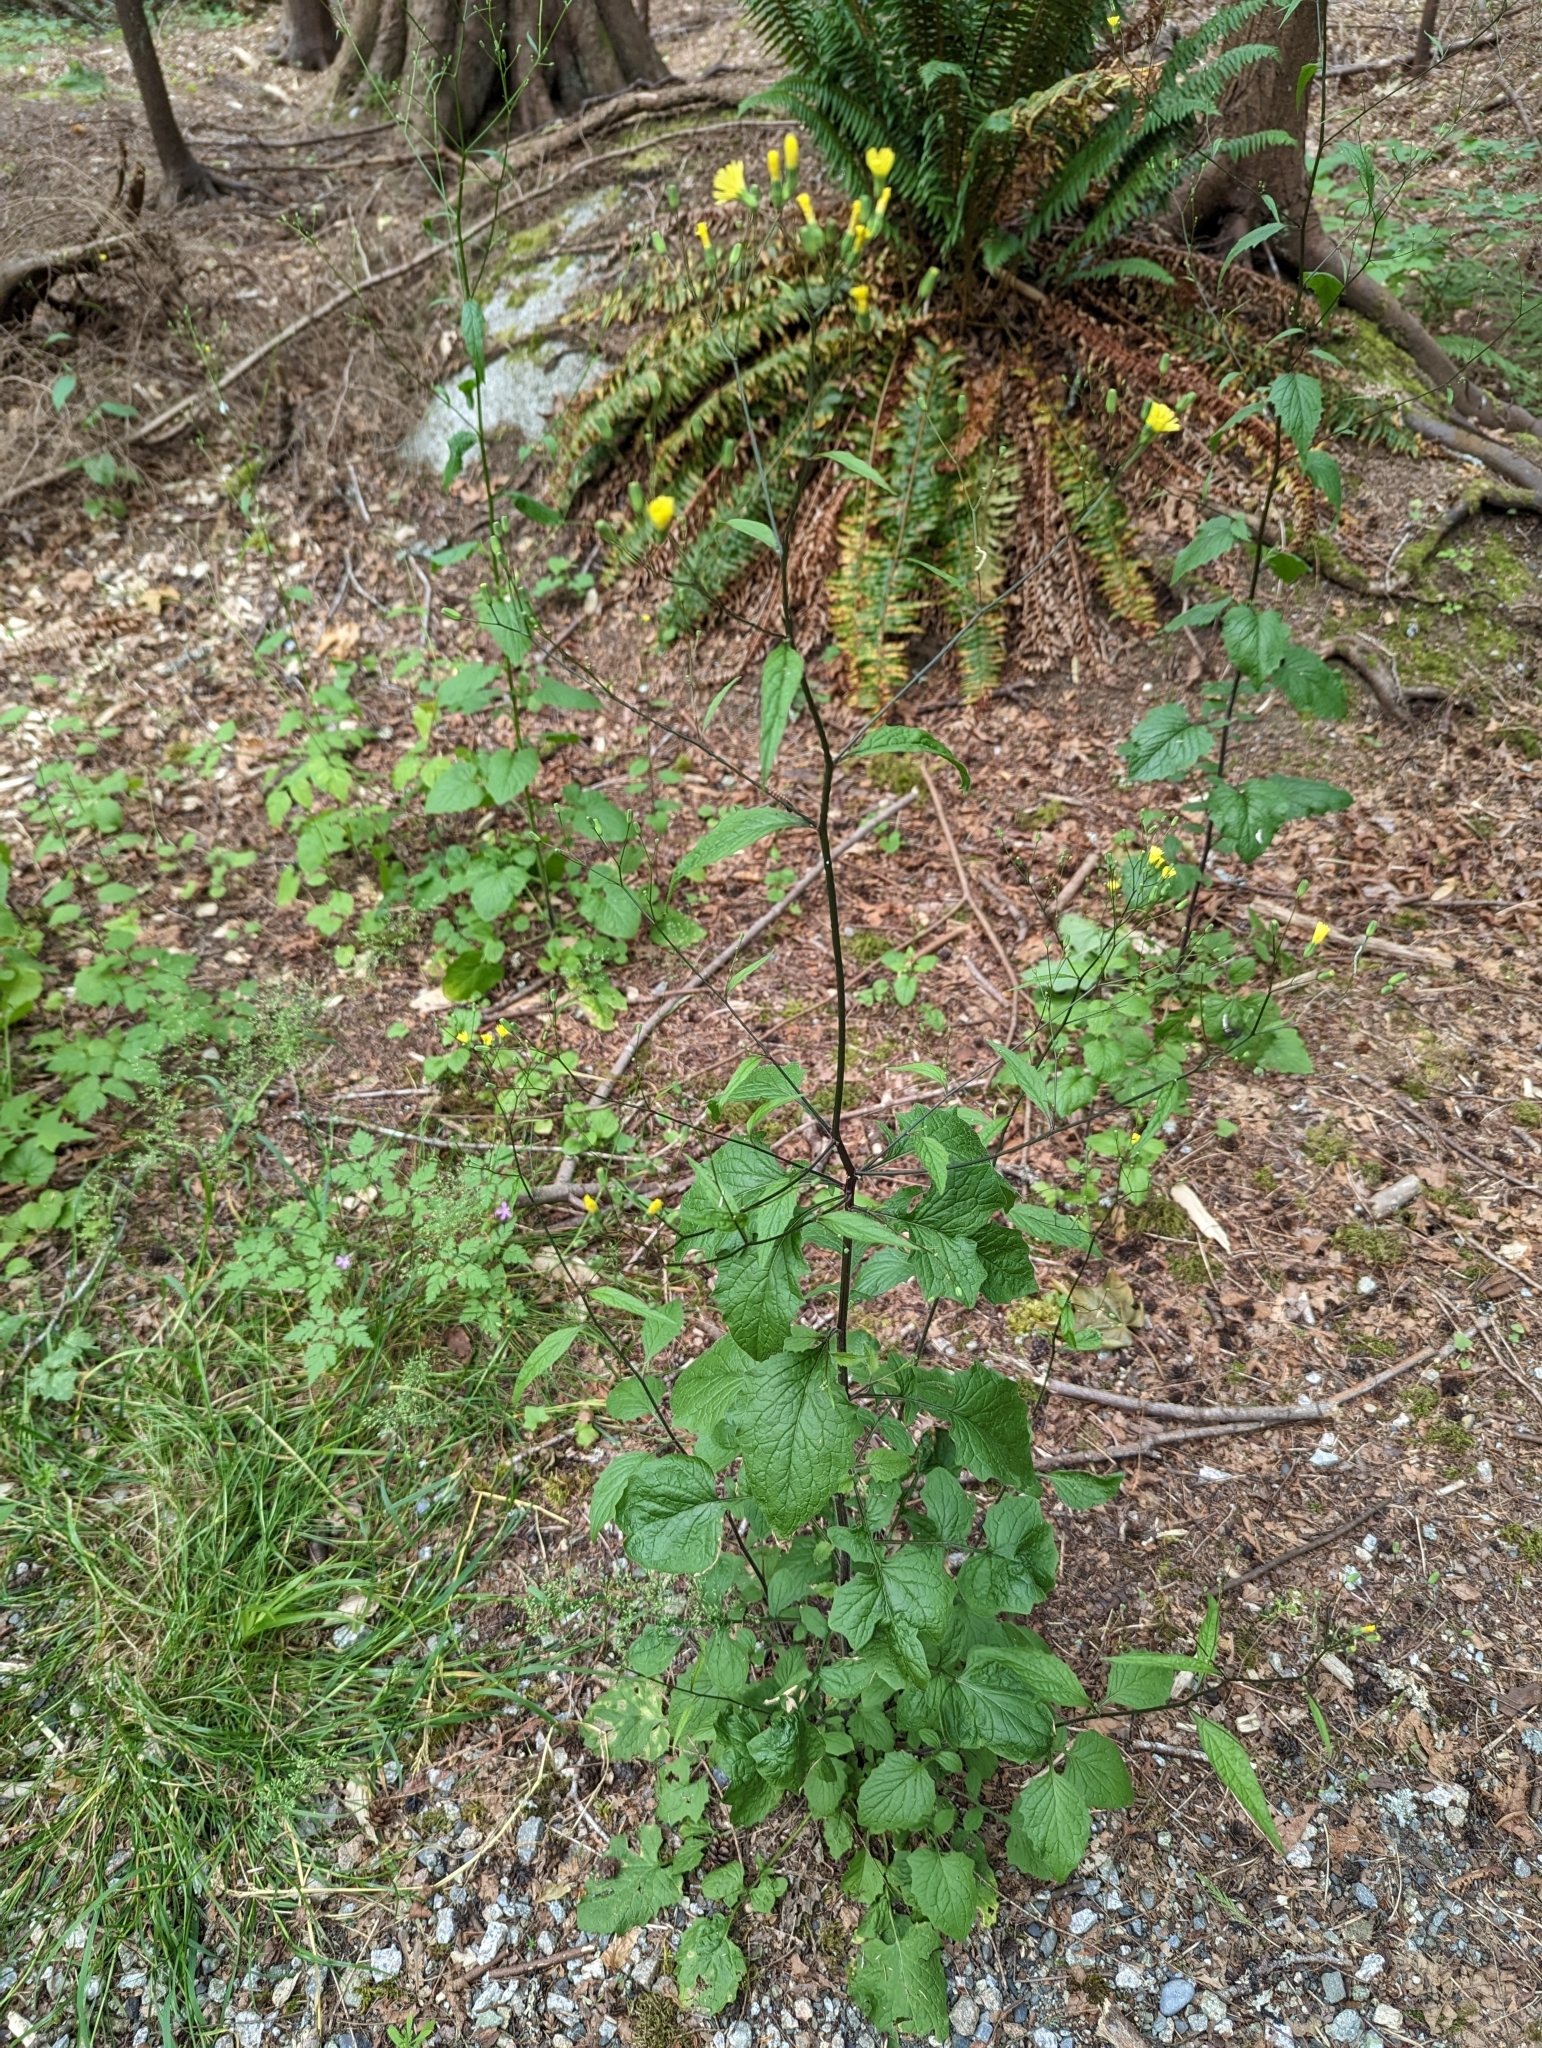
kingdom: Plantae
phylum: Tracheophyta
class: Magnoliopsida
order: Asterales
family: Asteraceae
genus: Lapsana
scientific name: Lapsana communis
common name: Nipplewort
